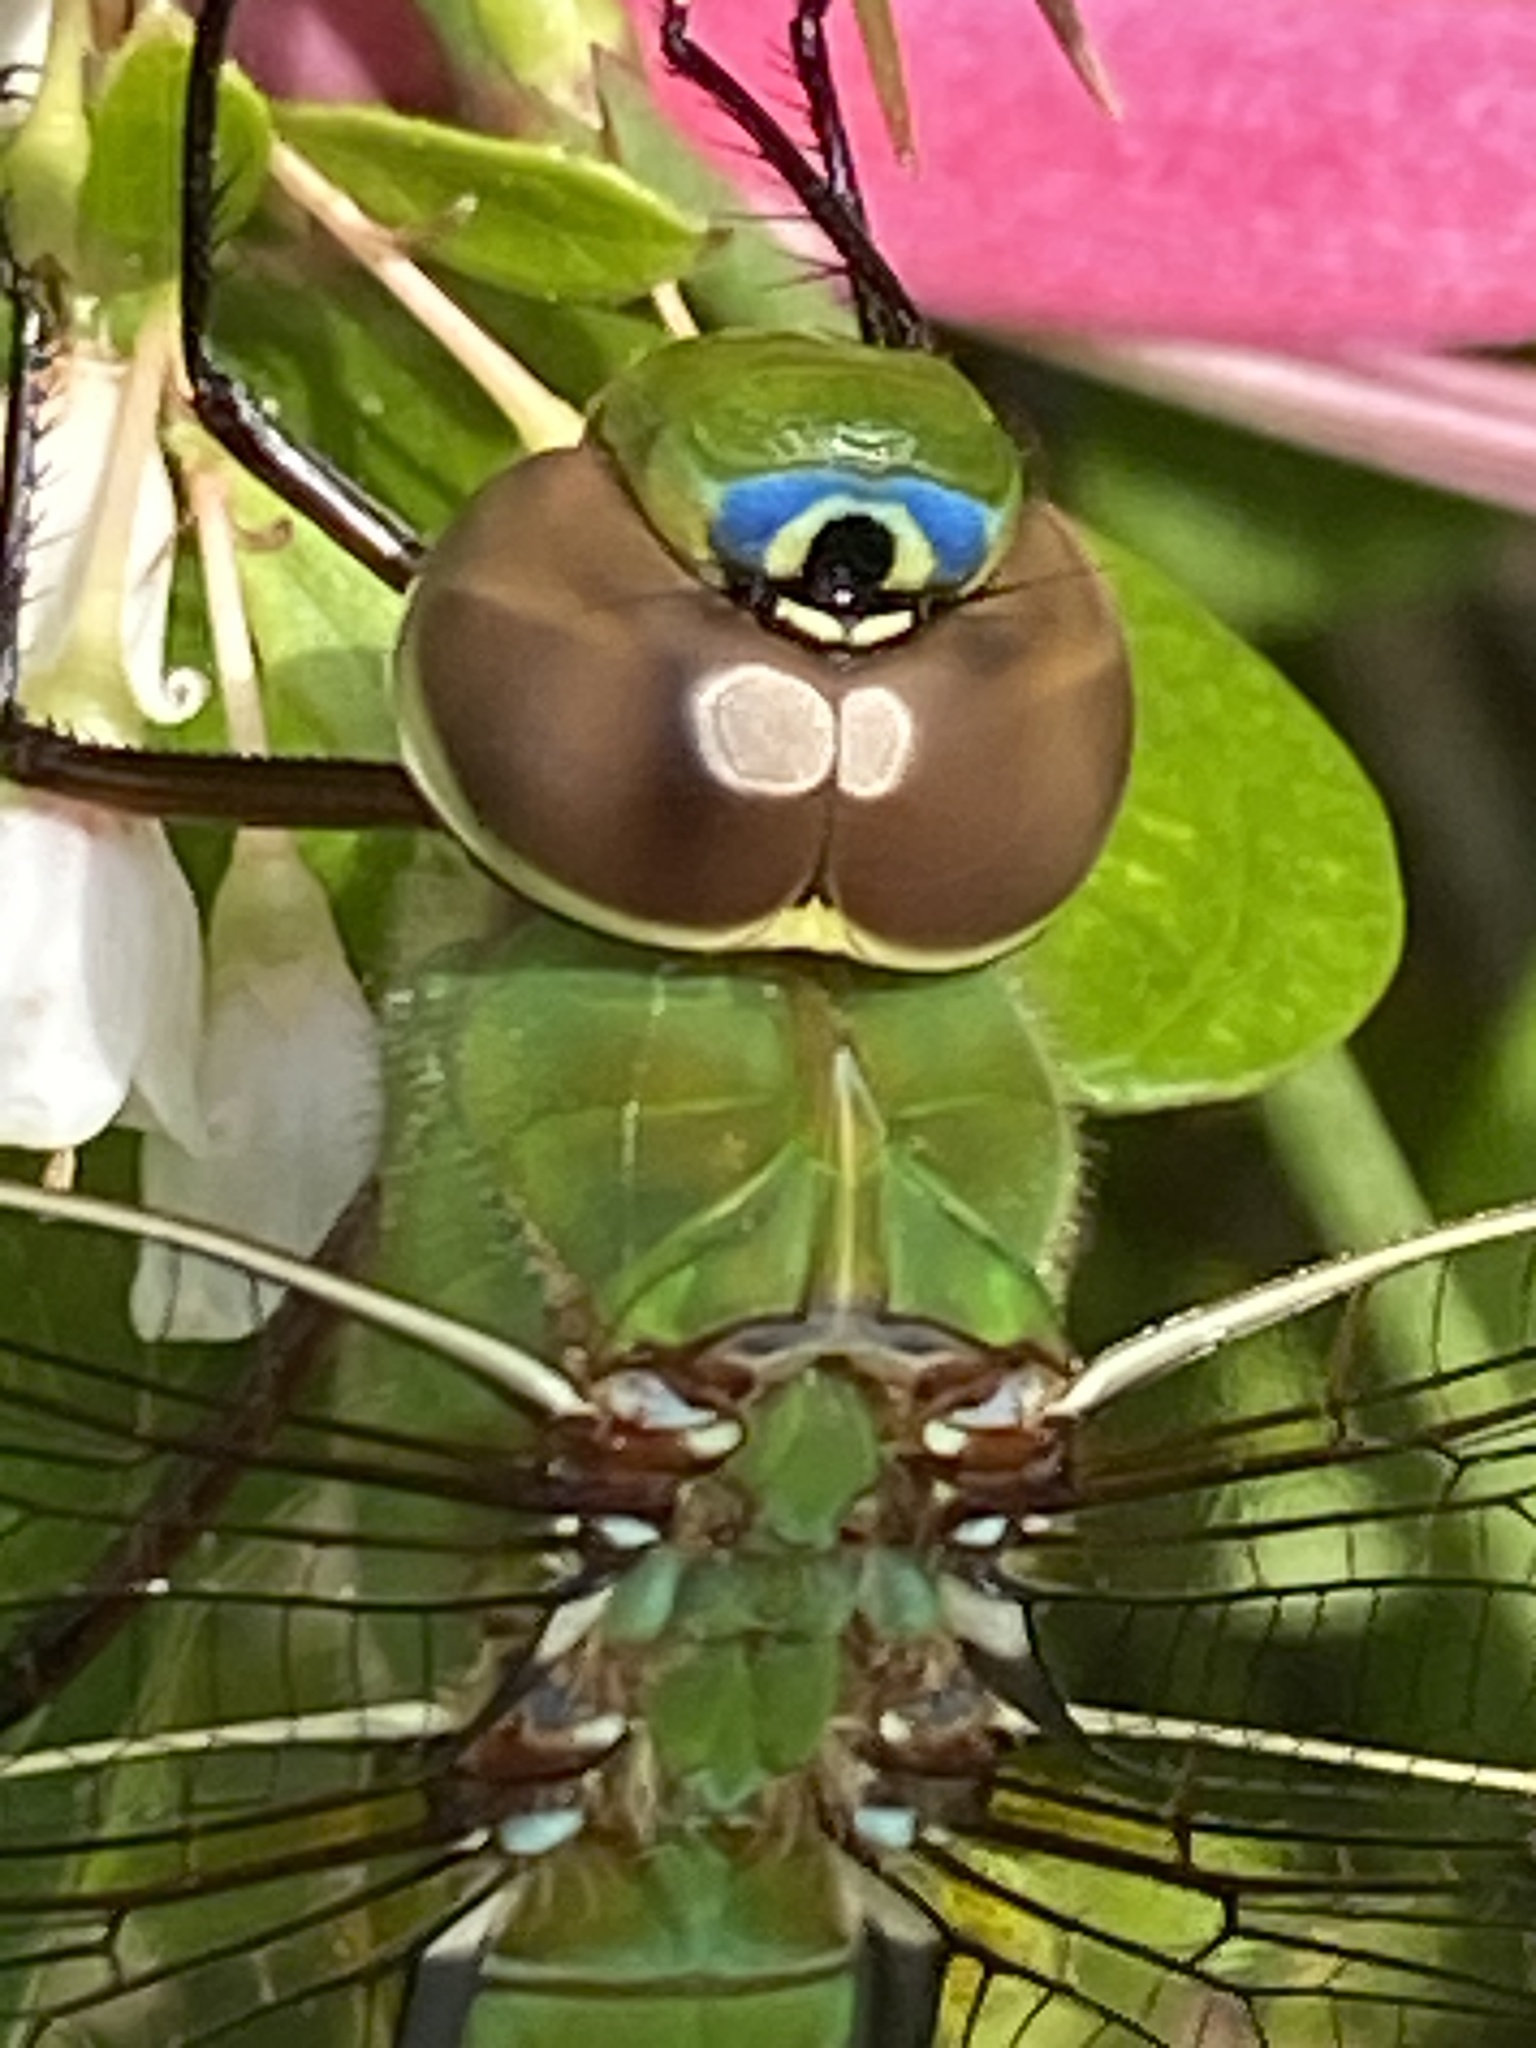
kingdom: Animalia
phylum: Arthropoda
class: Insecta
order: Odonata
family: Aeshnidae
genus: Anax
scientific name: Anax junius
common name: Common green darner
